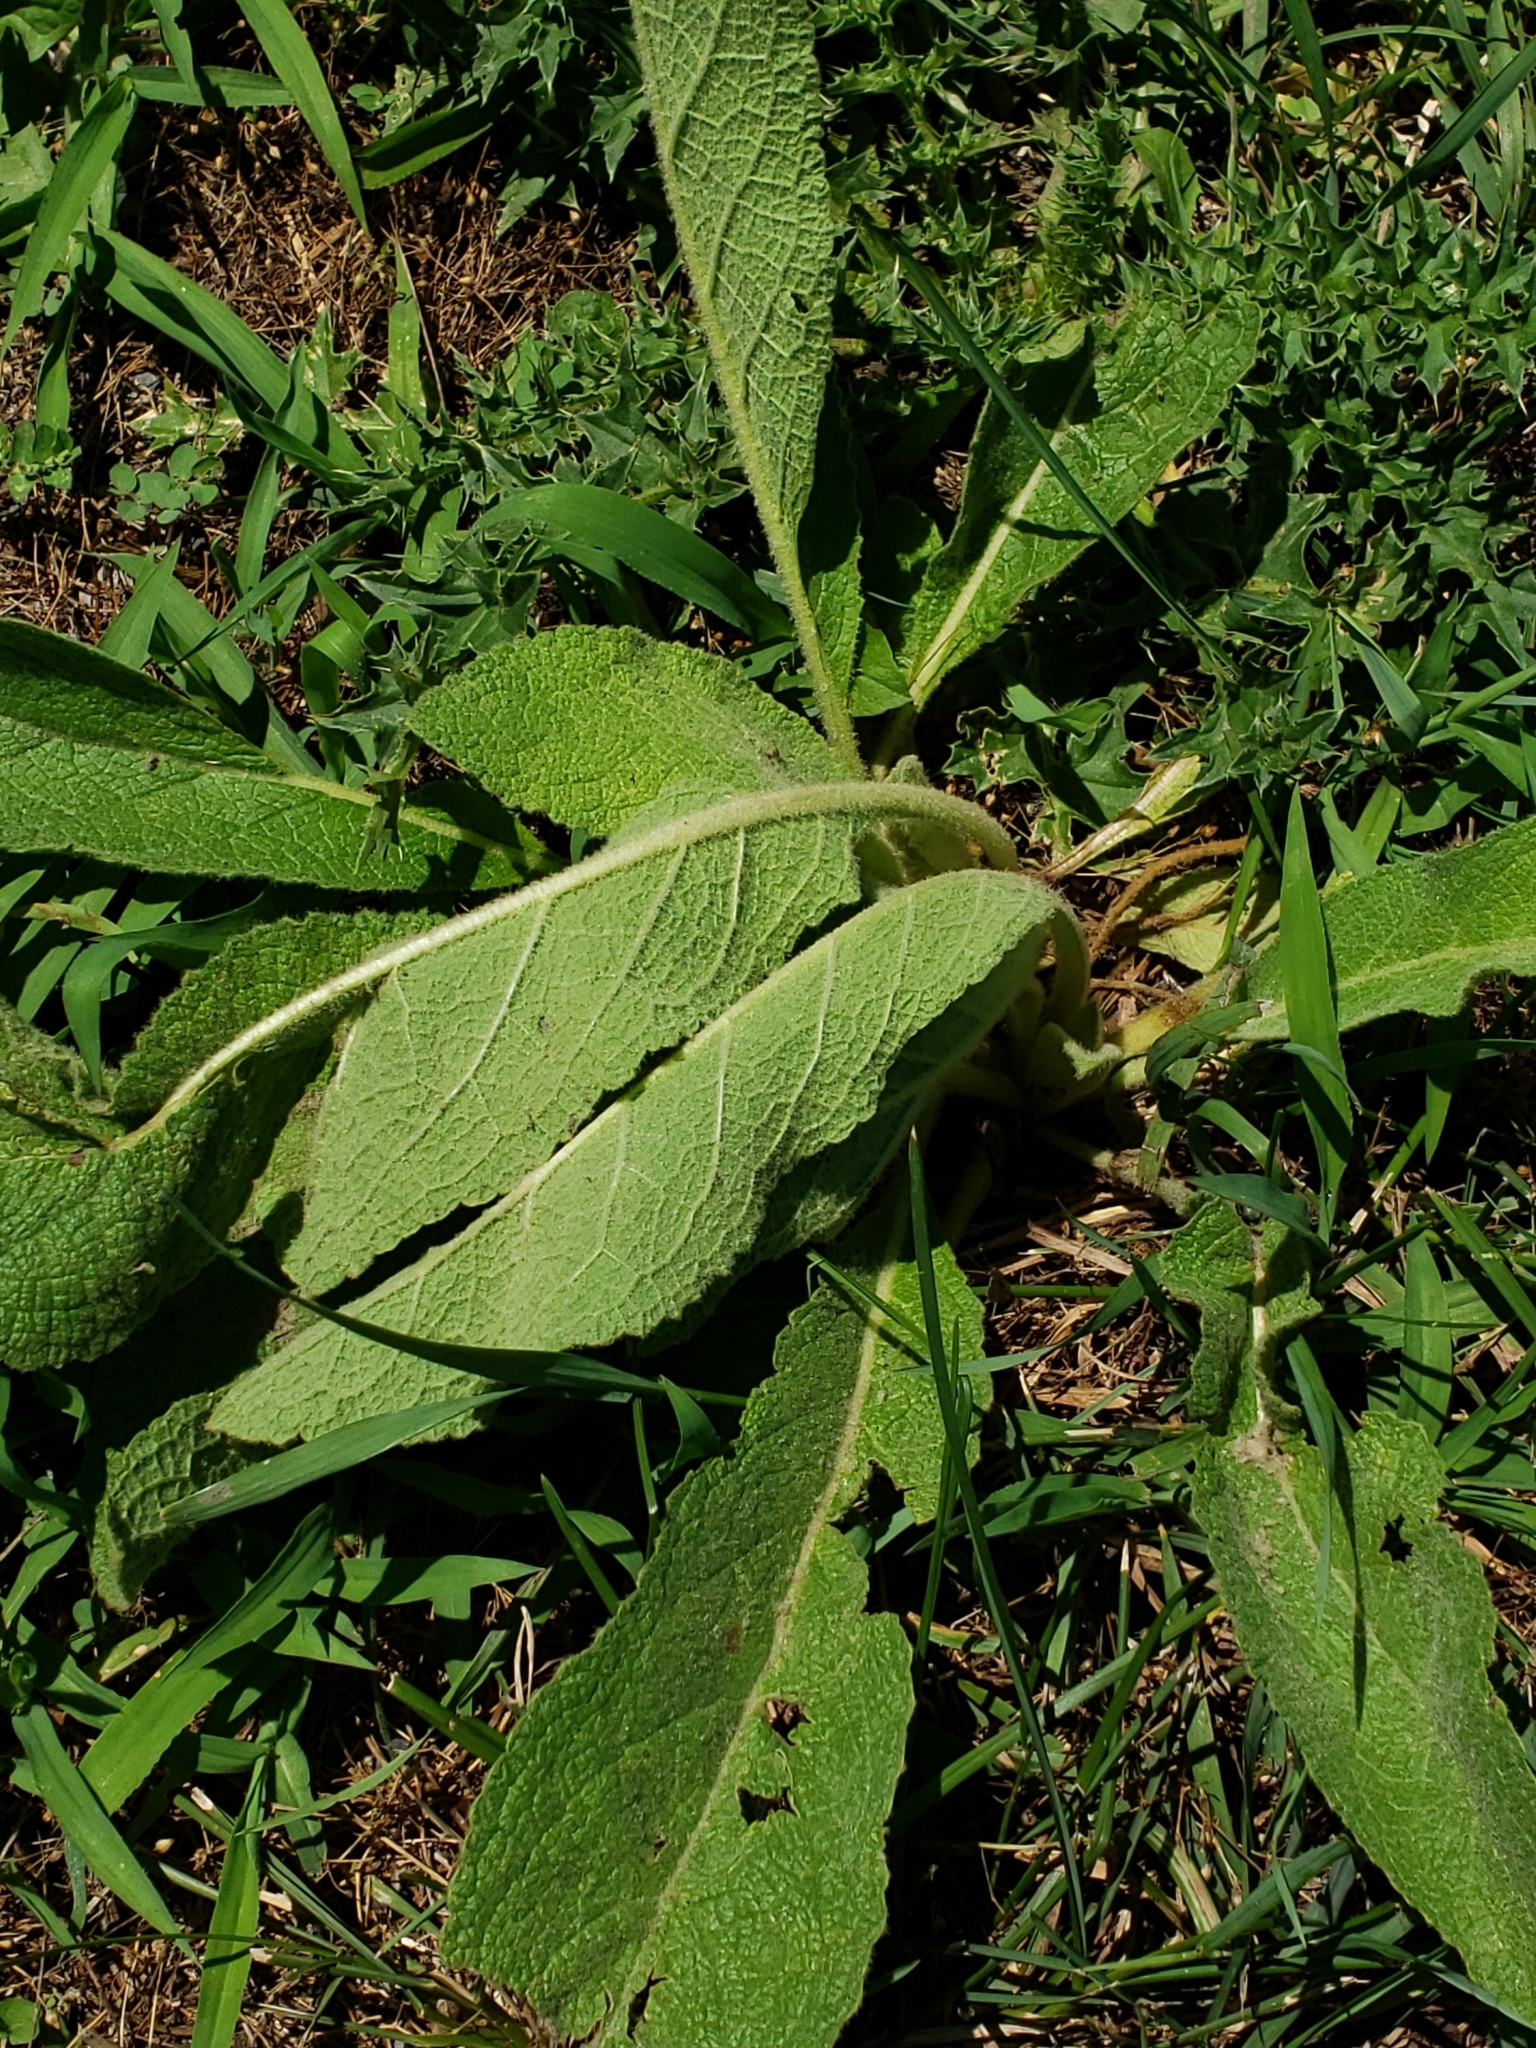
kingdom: Plantae
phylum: Tracheophyta
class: Magnoliopsida
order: Lamiales
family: Scrophulariaceae
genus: Verbascum
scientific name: Verbascum thapsus
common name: Common mullein
